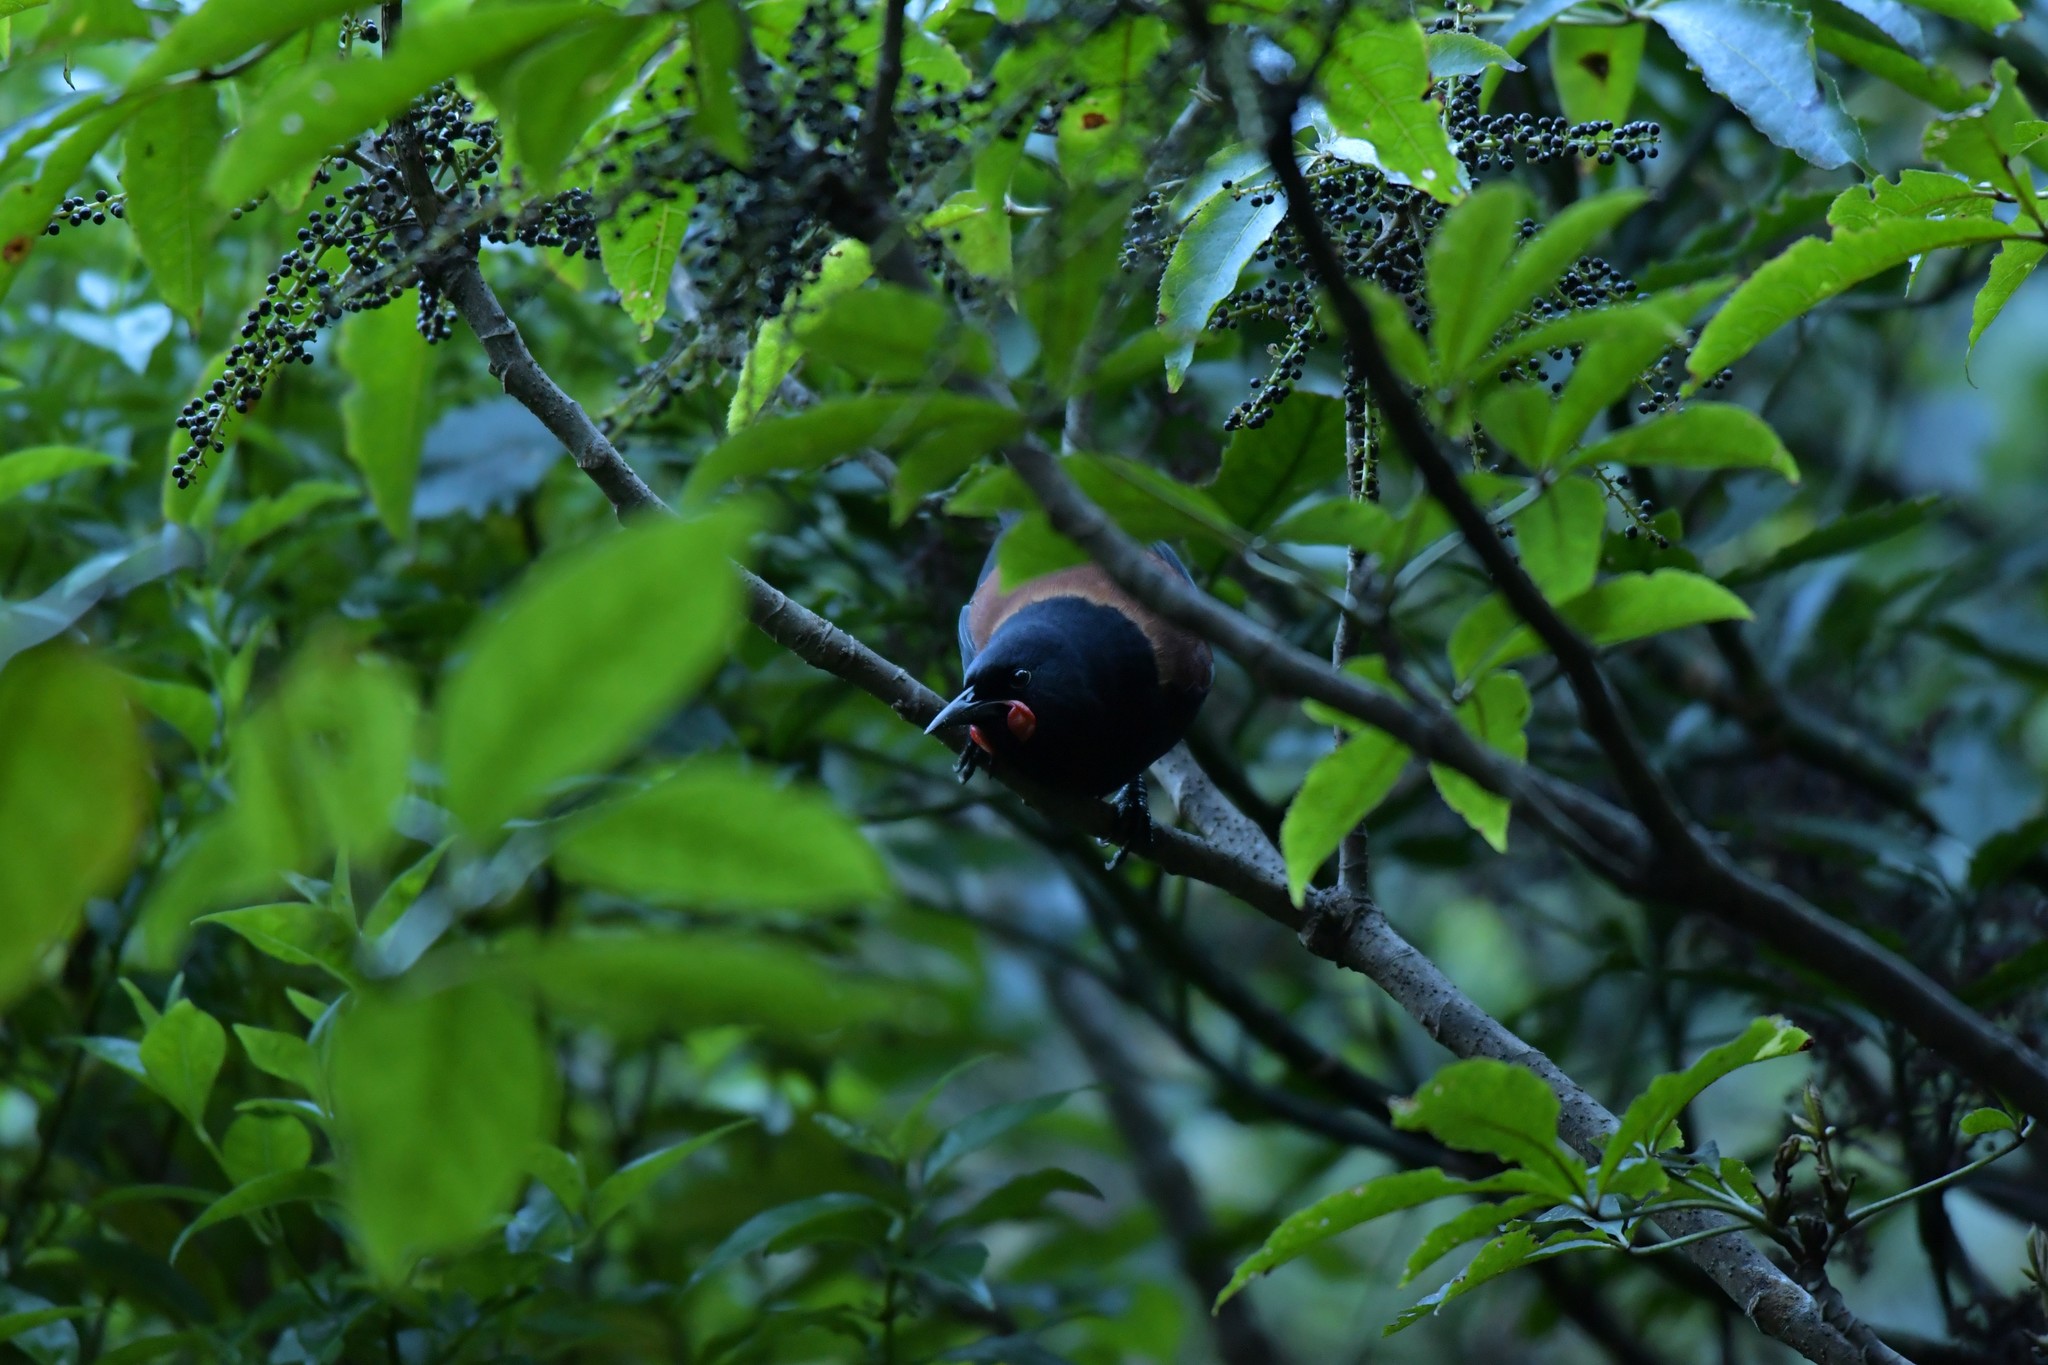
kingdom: Animalia
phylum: Chordata
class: Aves
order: Passeriformes
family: Callaeatidae
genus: Philesturnus
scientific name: Philesturnus carunculatus
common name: South island saddleback
